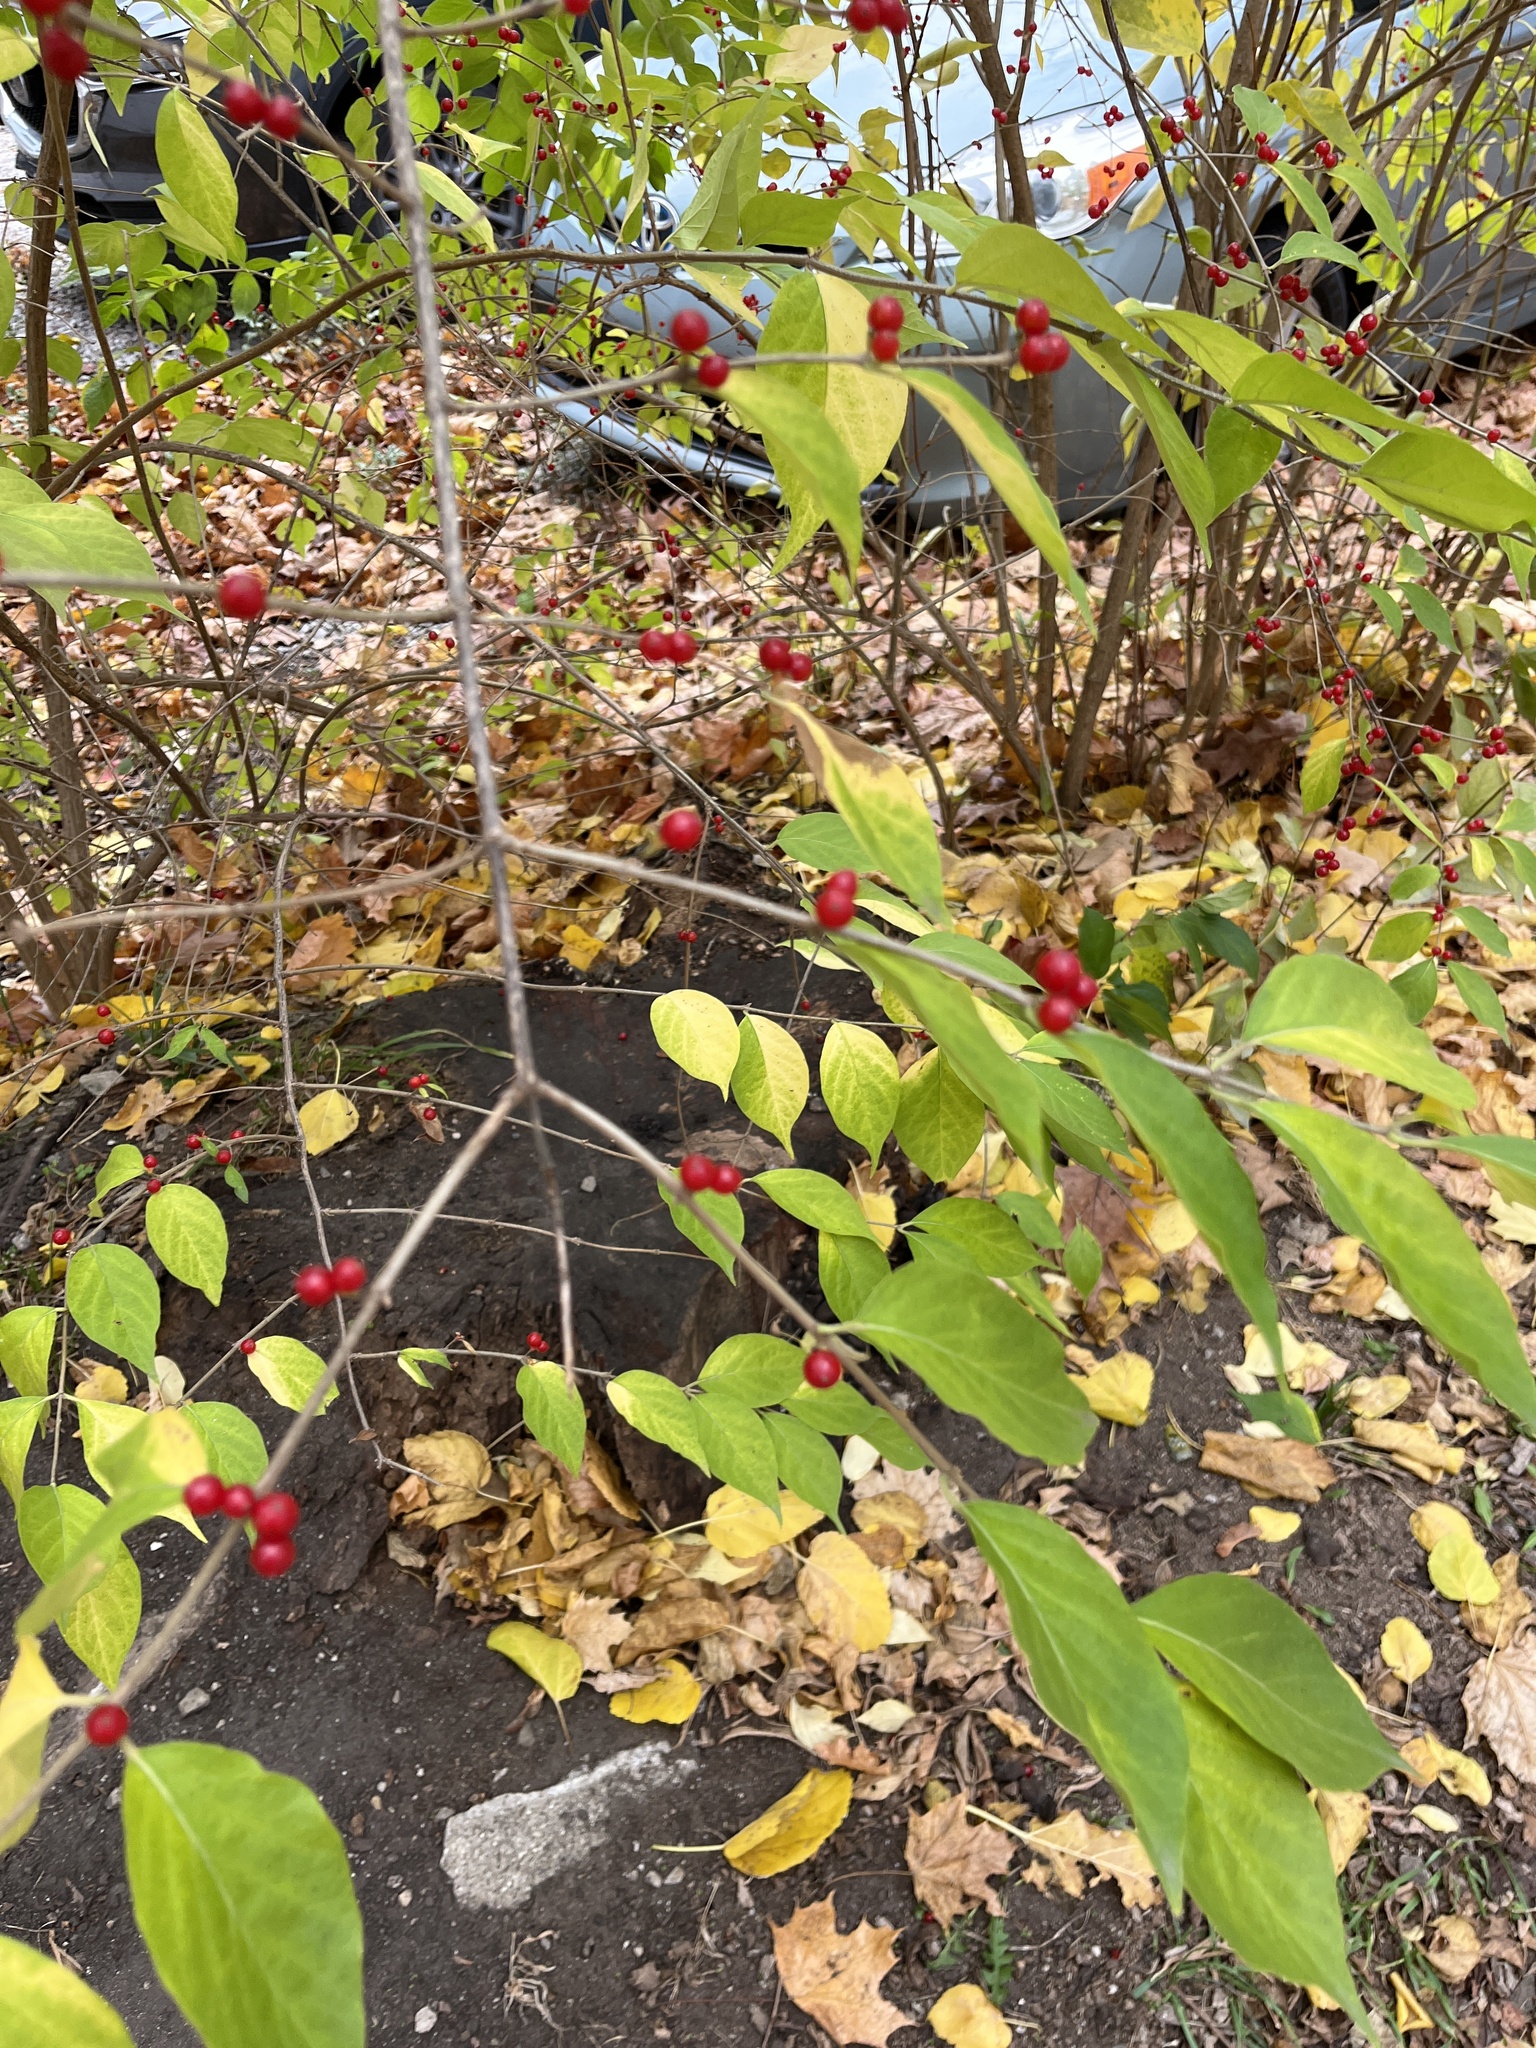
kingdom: Plantae
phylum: Tracheophyta
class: Magnoliopsida
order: Dipsacales
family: Caprifoliaceae
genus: Lonicera
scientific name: Lonicera maackii
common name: Amur honeysuckle
